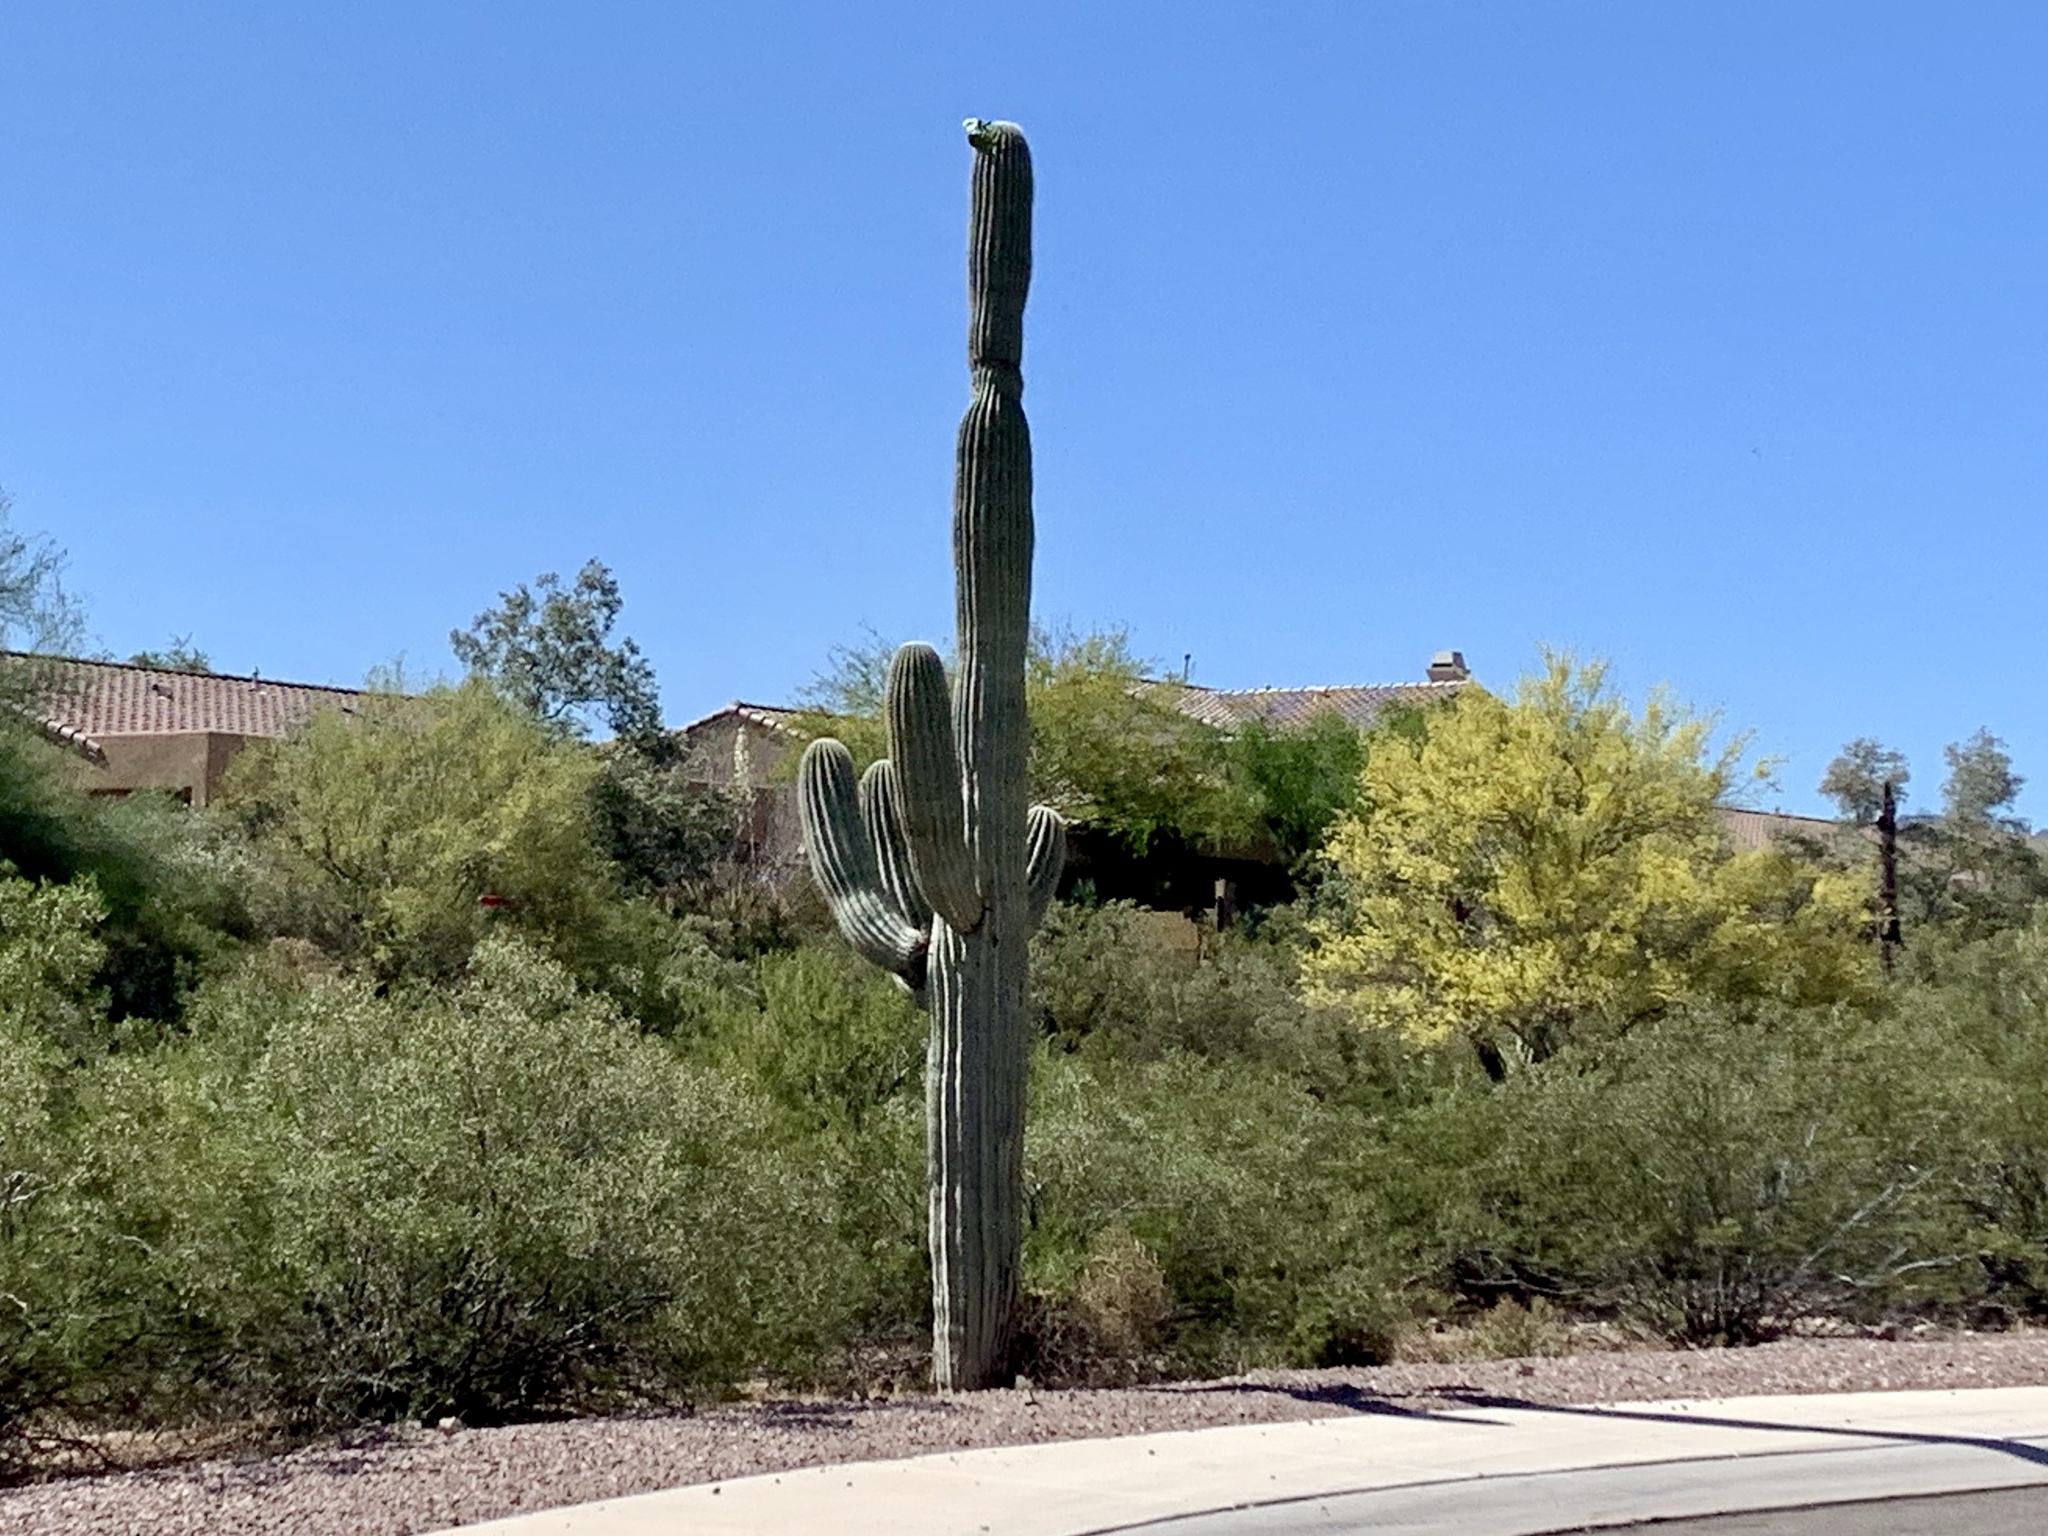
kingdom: Plantae
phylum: Tracheophyta
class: Magnoliopsida
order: Caryophyllales
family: Cactaceae
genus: Carnegiea
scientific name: Carnegiea gigantea
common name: Saguaro
